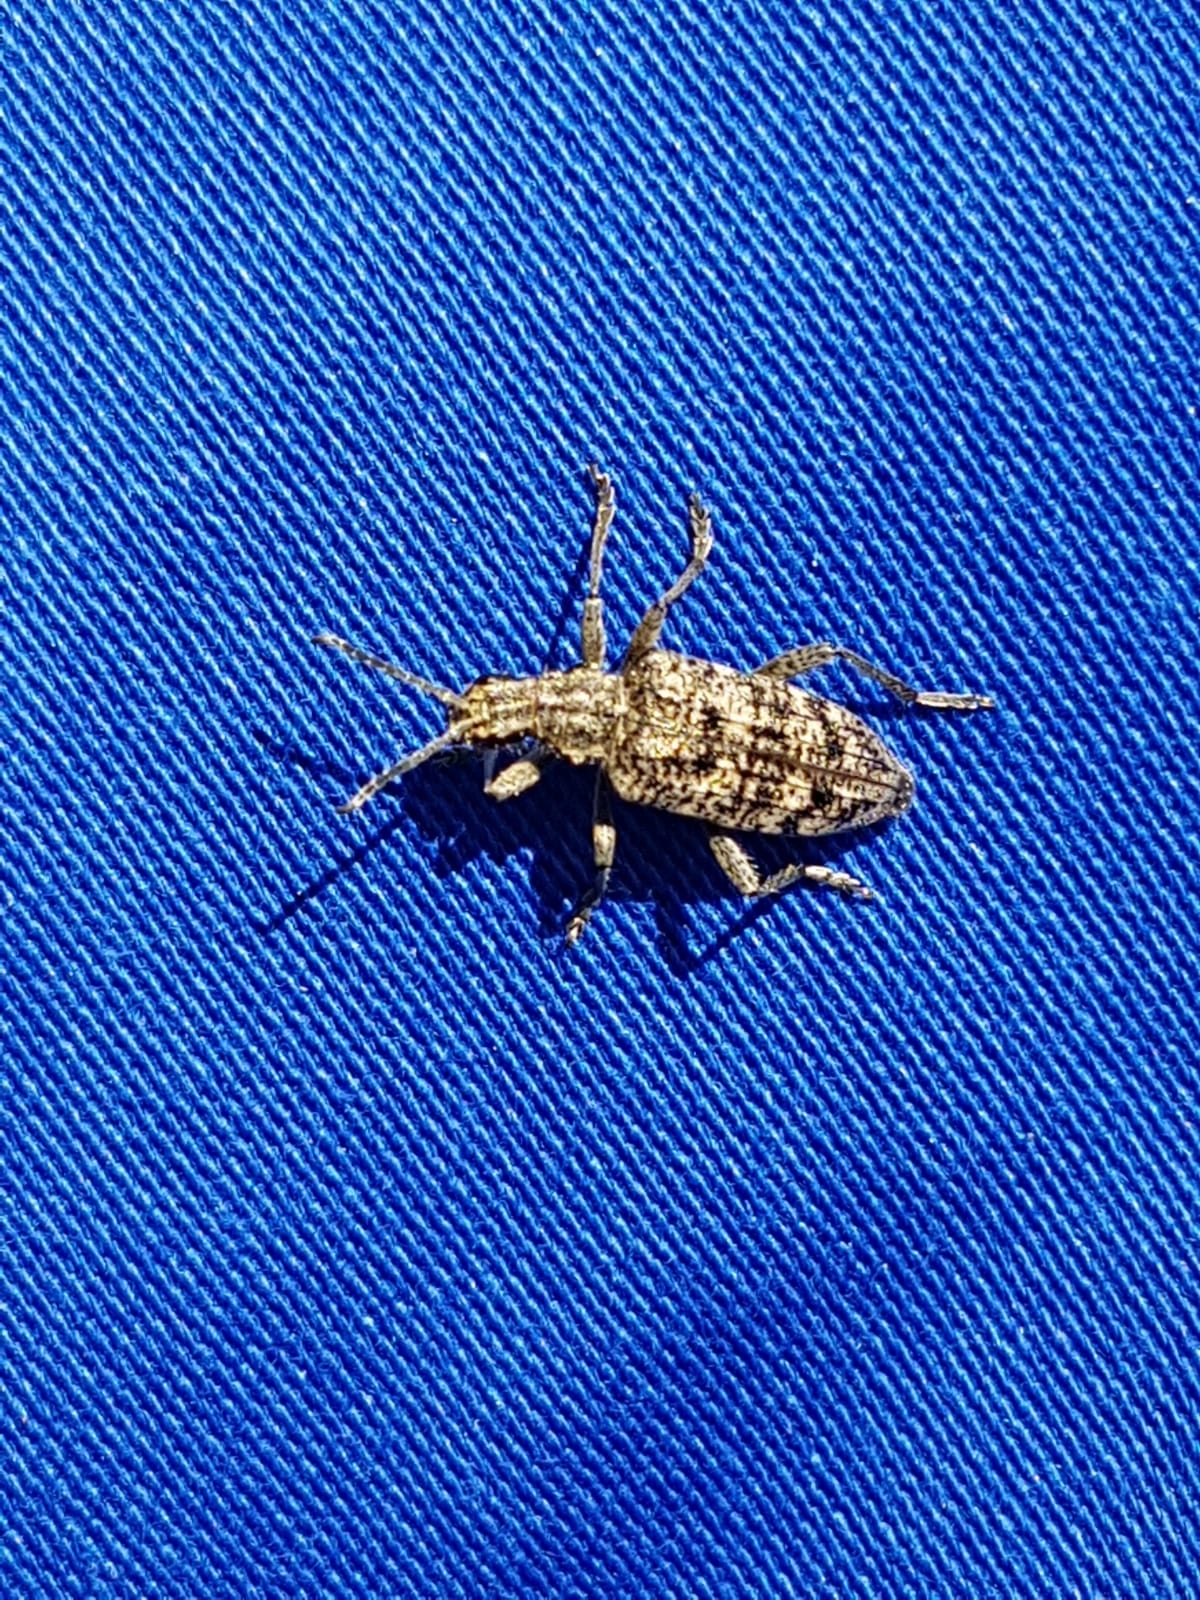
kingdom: Animalia
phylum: Arthropoda
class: Insecta
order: Coleoptera
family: Cerambycidae
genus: Rhagium
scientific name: Rhagium inquisitor
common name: Ribbed pine borer
